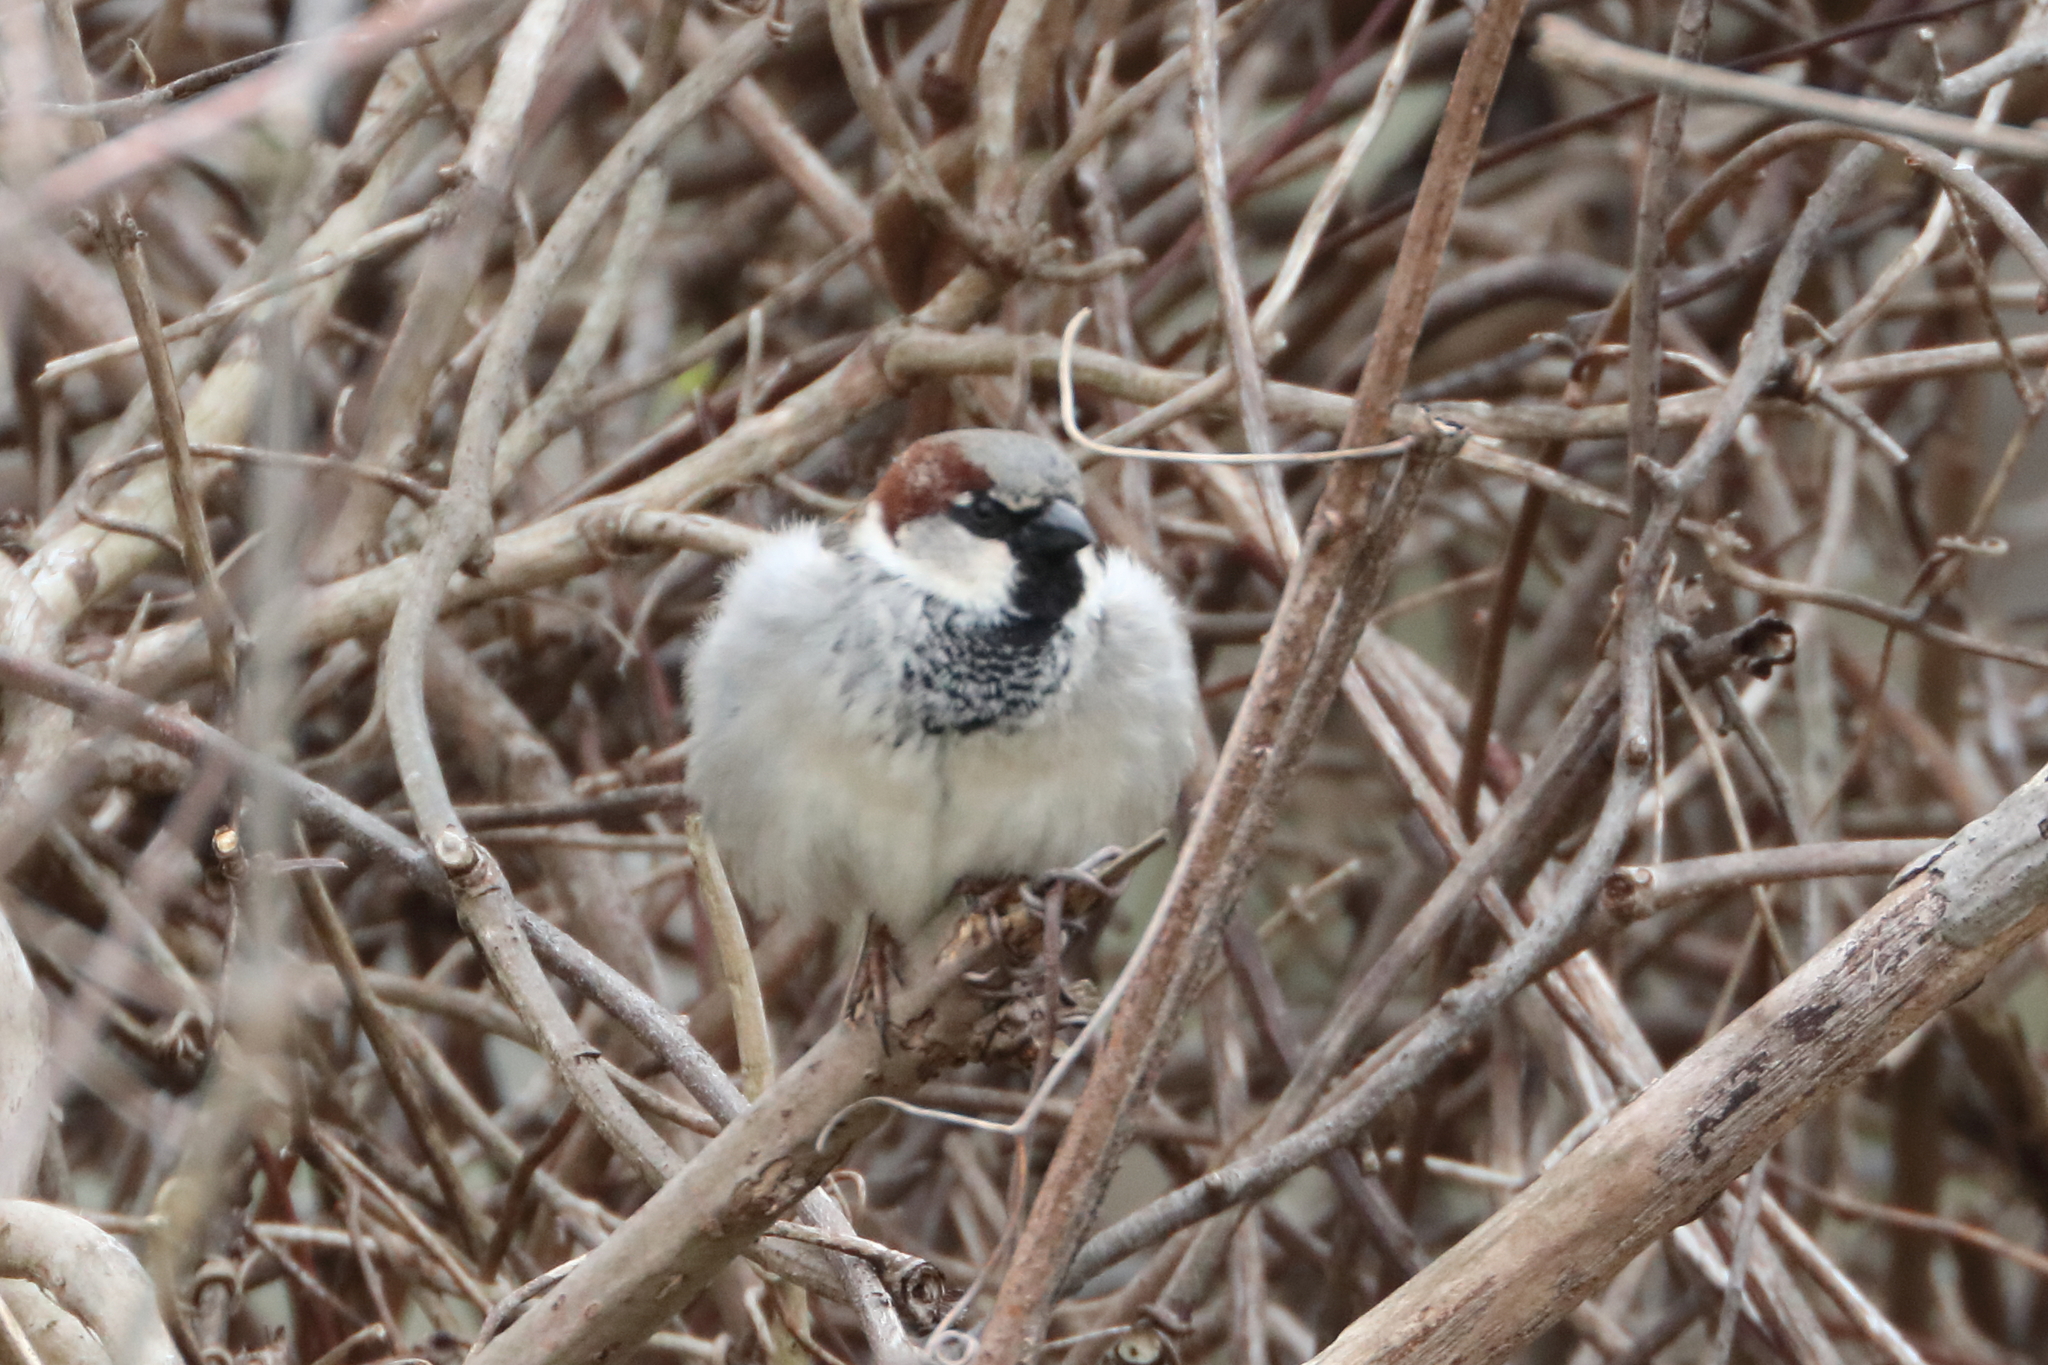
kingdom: Animalia
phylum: Chordata
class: Aves
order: Passeriformes
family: Passeridae
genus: Passer
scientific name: Passer domesticus
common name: House sparrow
